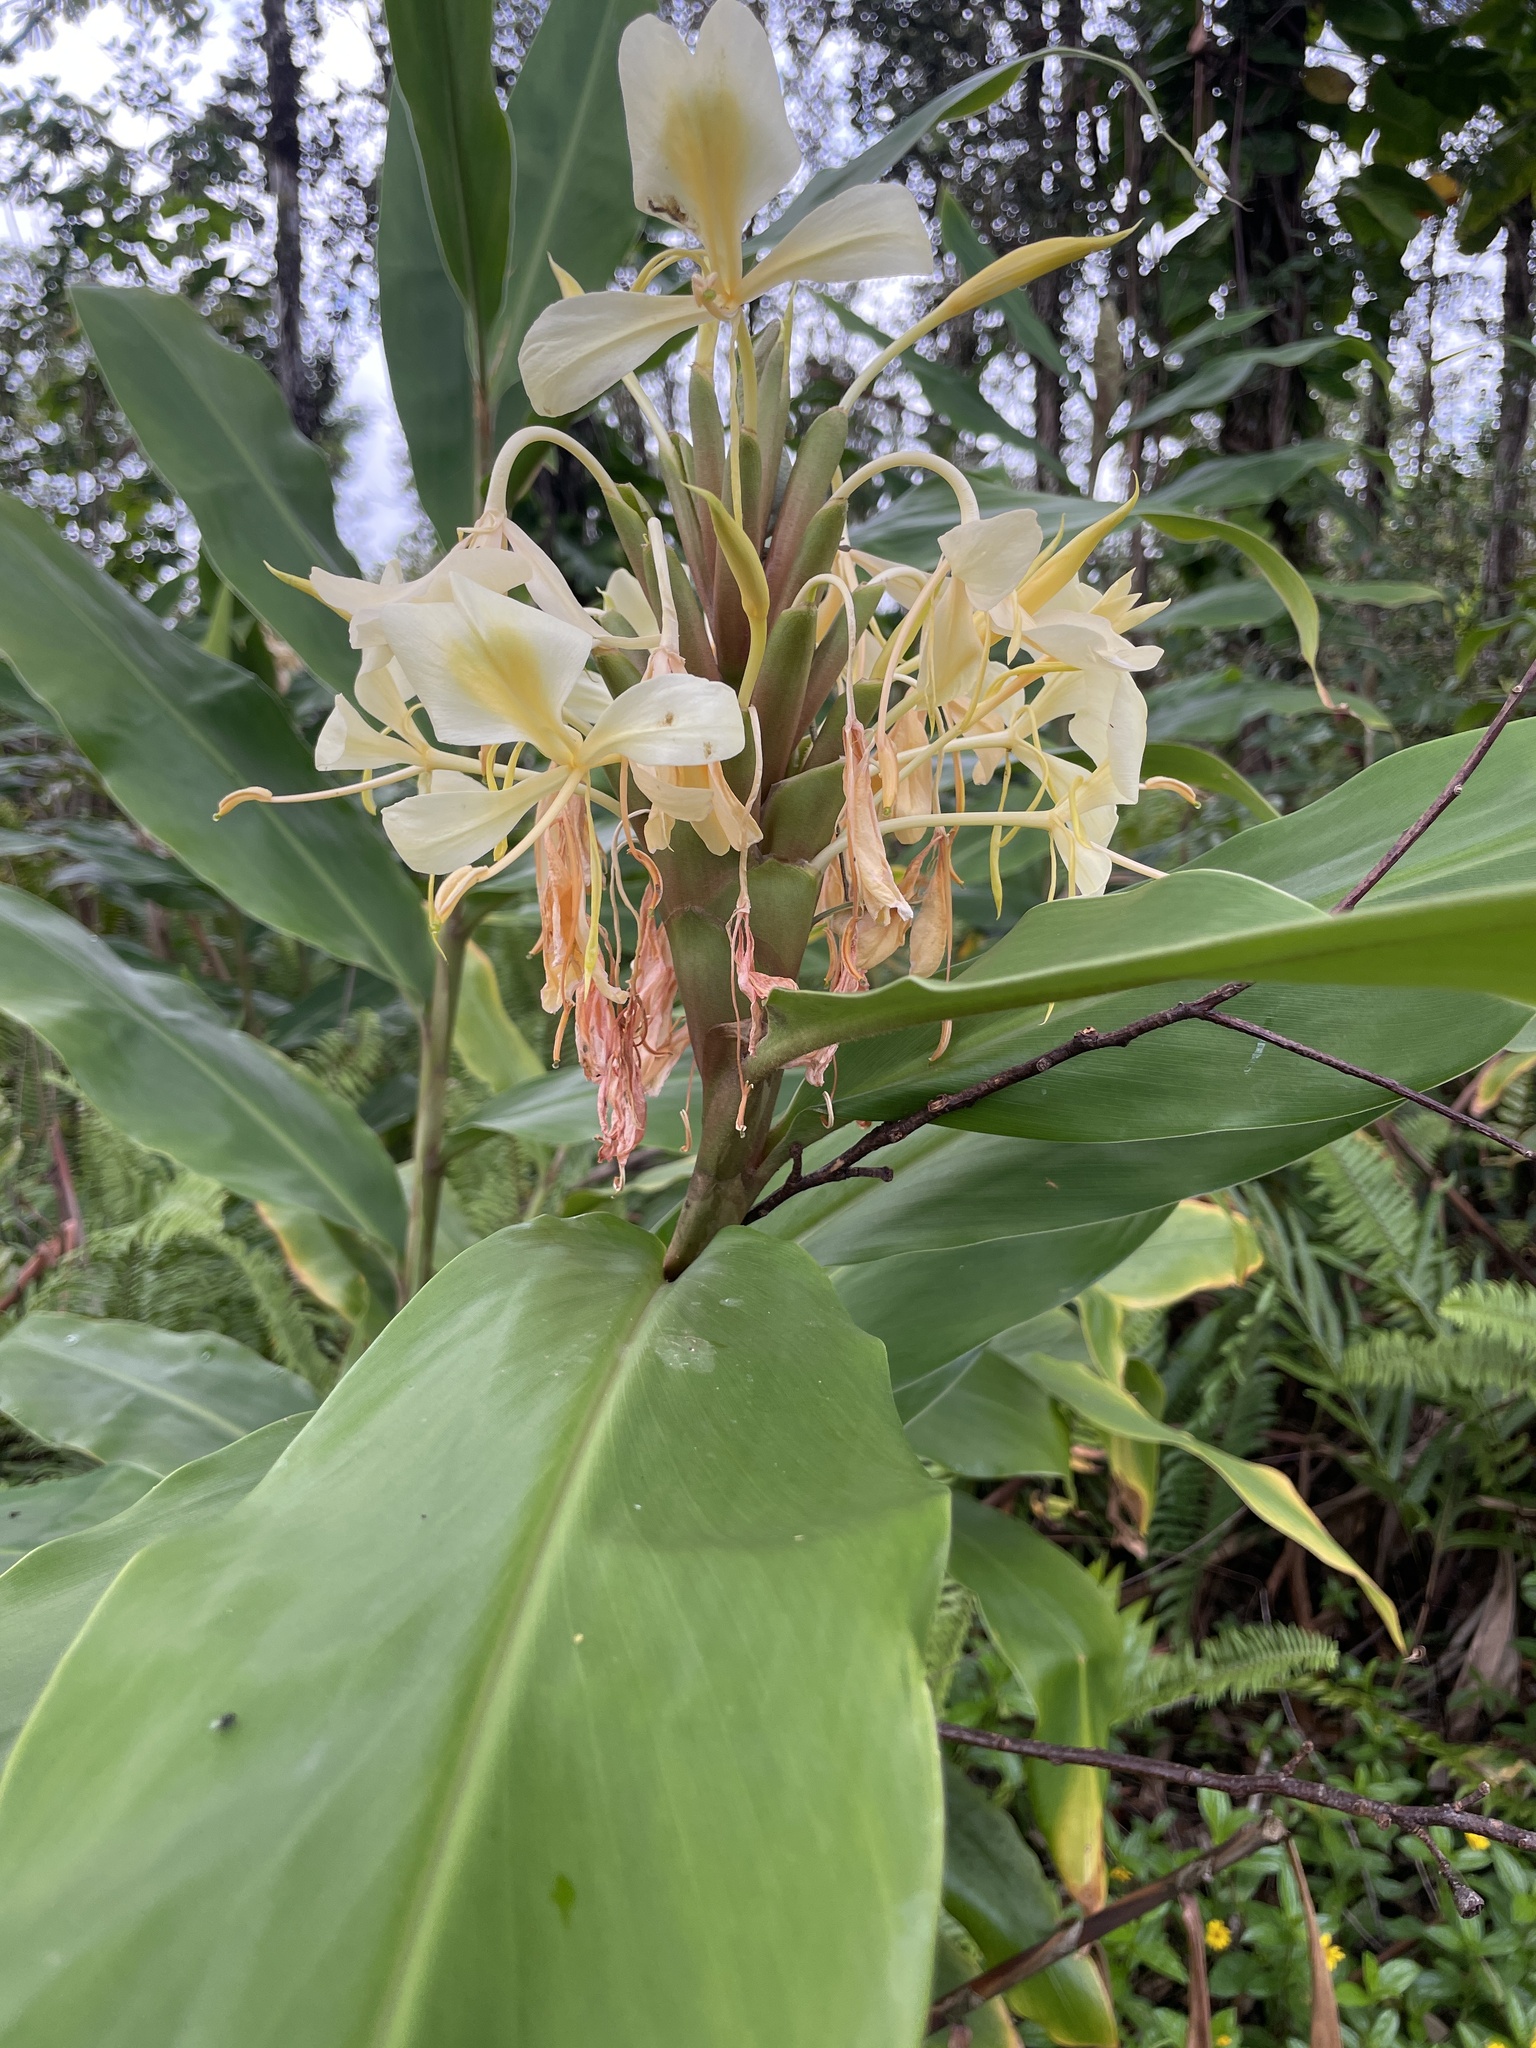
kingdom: Plantae
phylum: Tracheophyta
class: Liliopsida
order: Zingiberales
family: Zingiberaceae
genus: Hedychium
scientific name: Hedychium flavescens
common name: Yellow ginger
